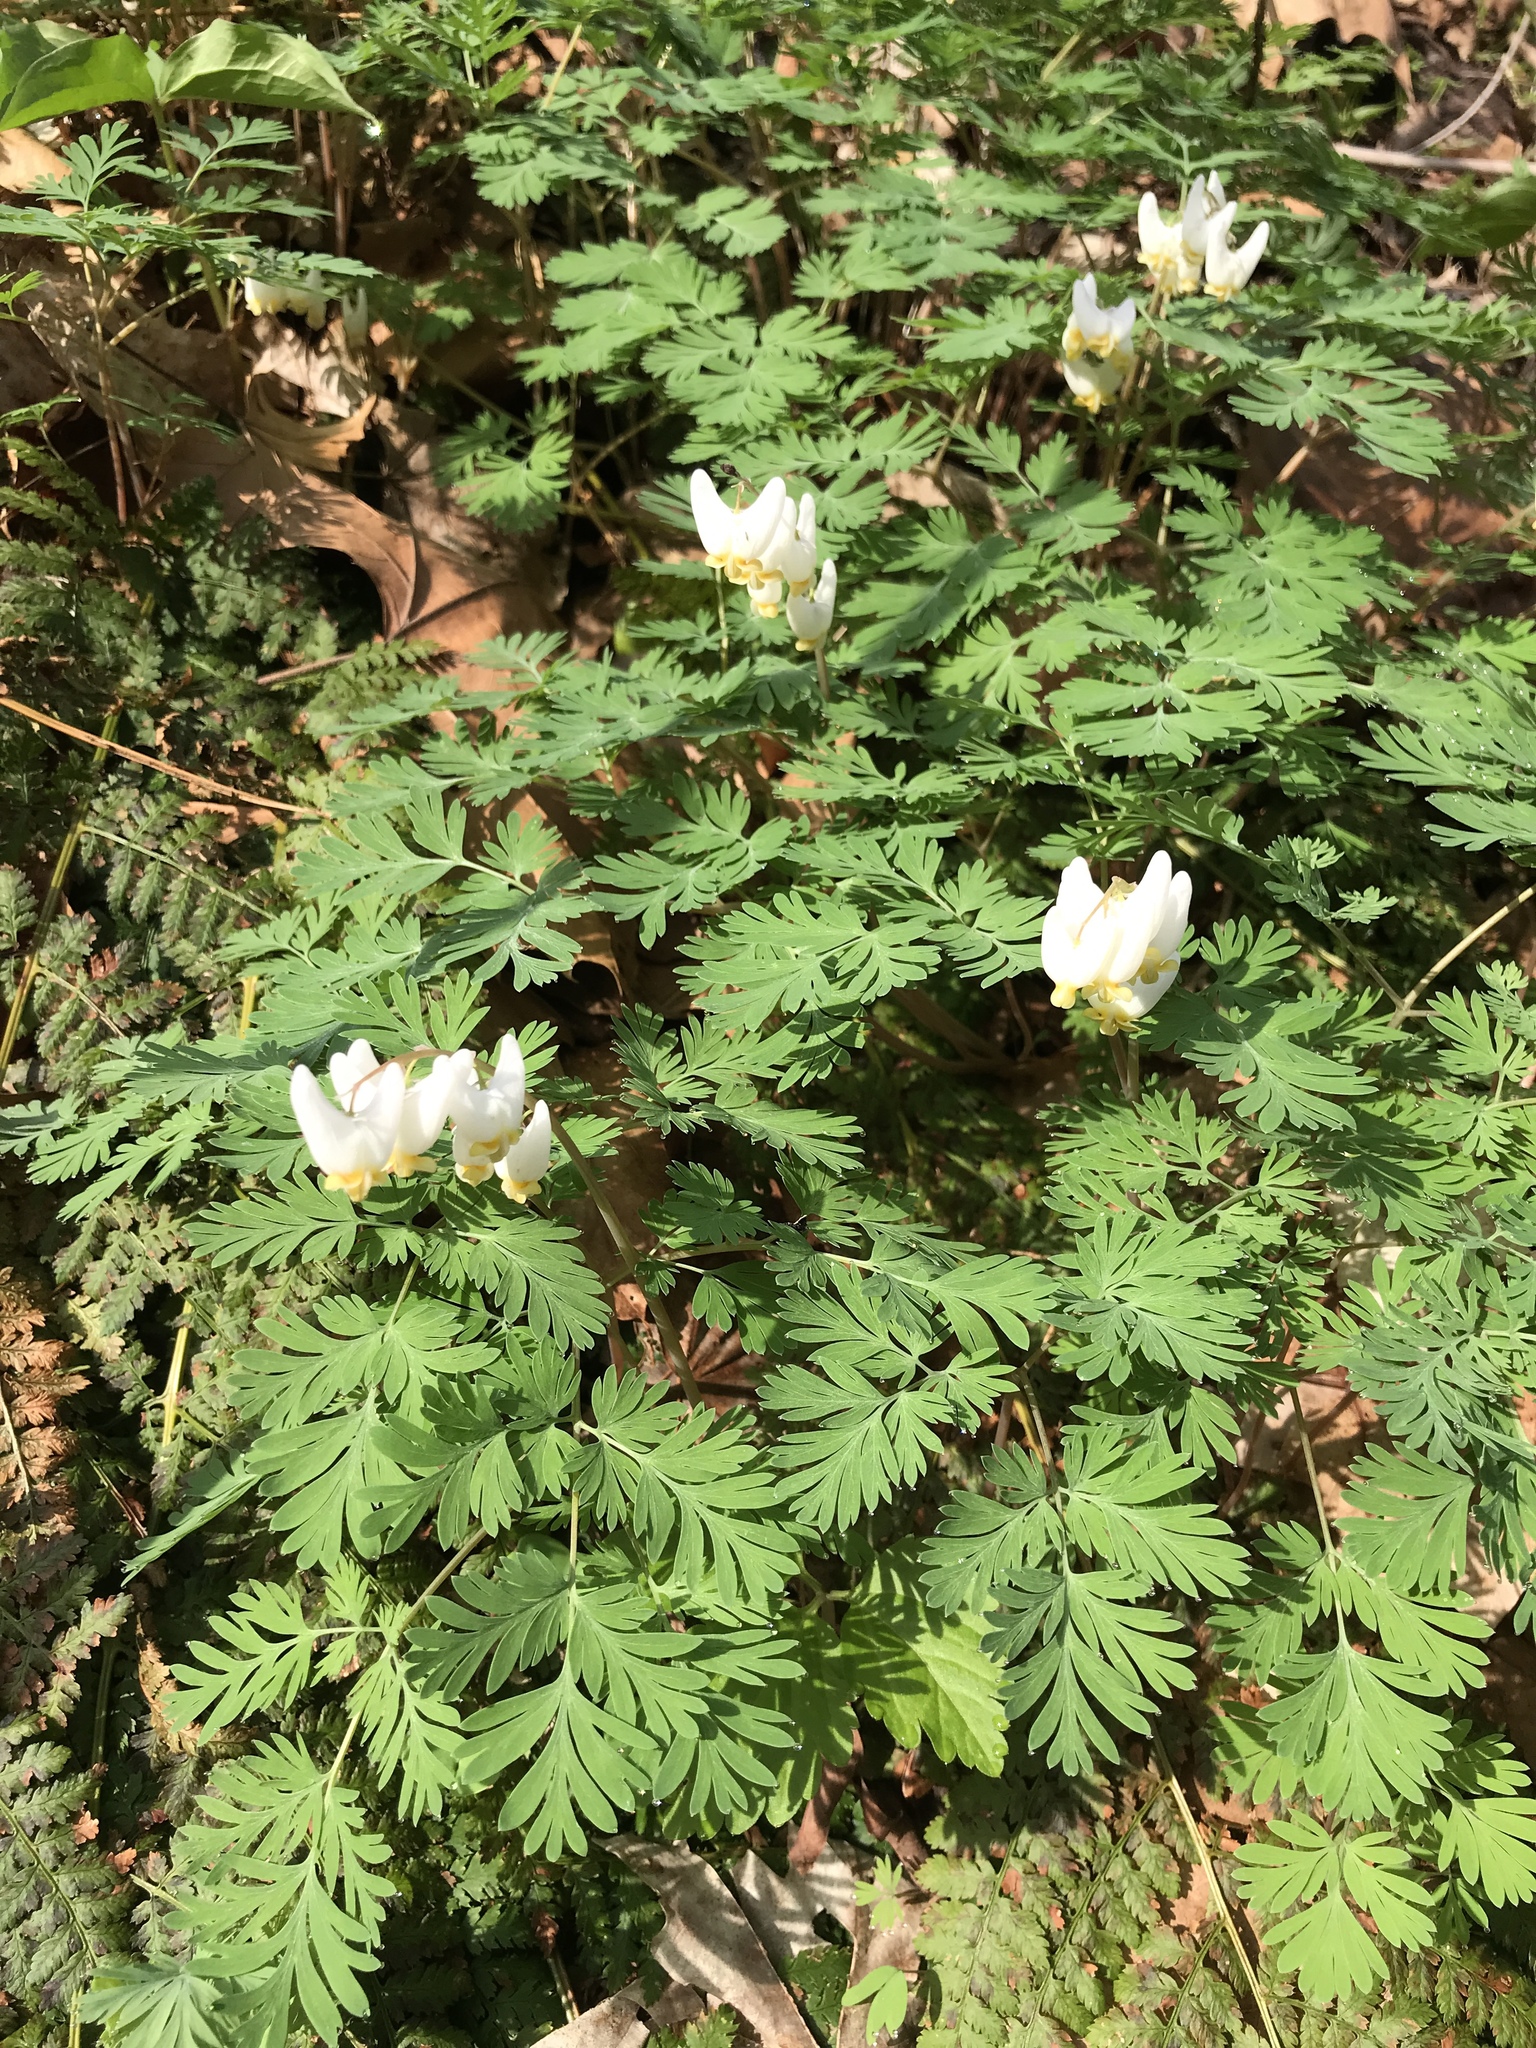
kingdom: Plantae
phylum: Tracheophyta
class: Magnoliopsida
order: Ranunculales
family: Papaveraceae
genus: Dicentra
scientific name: Dicentra cucullaria
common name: Dutchman's breeches
